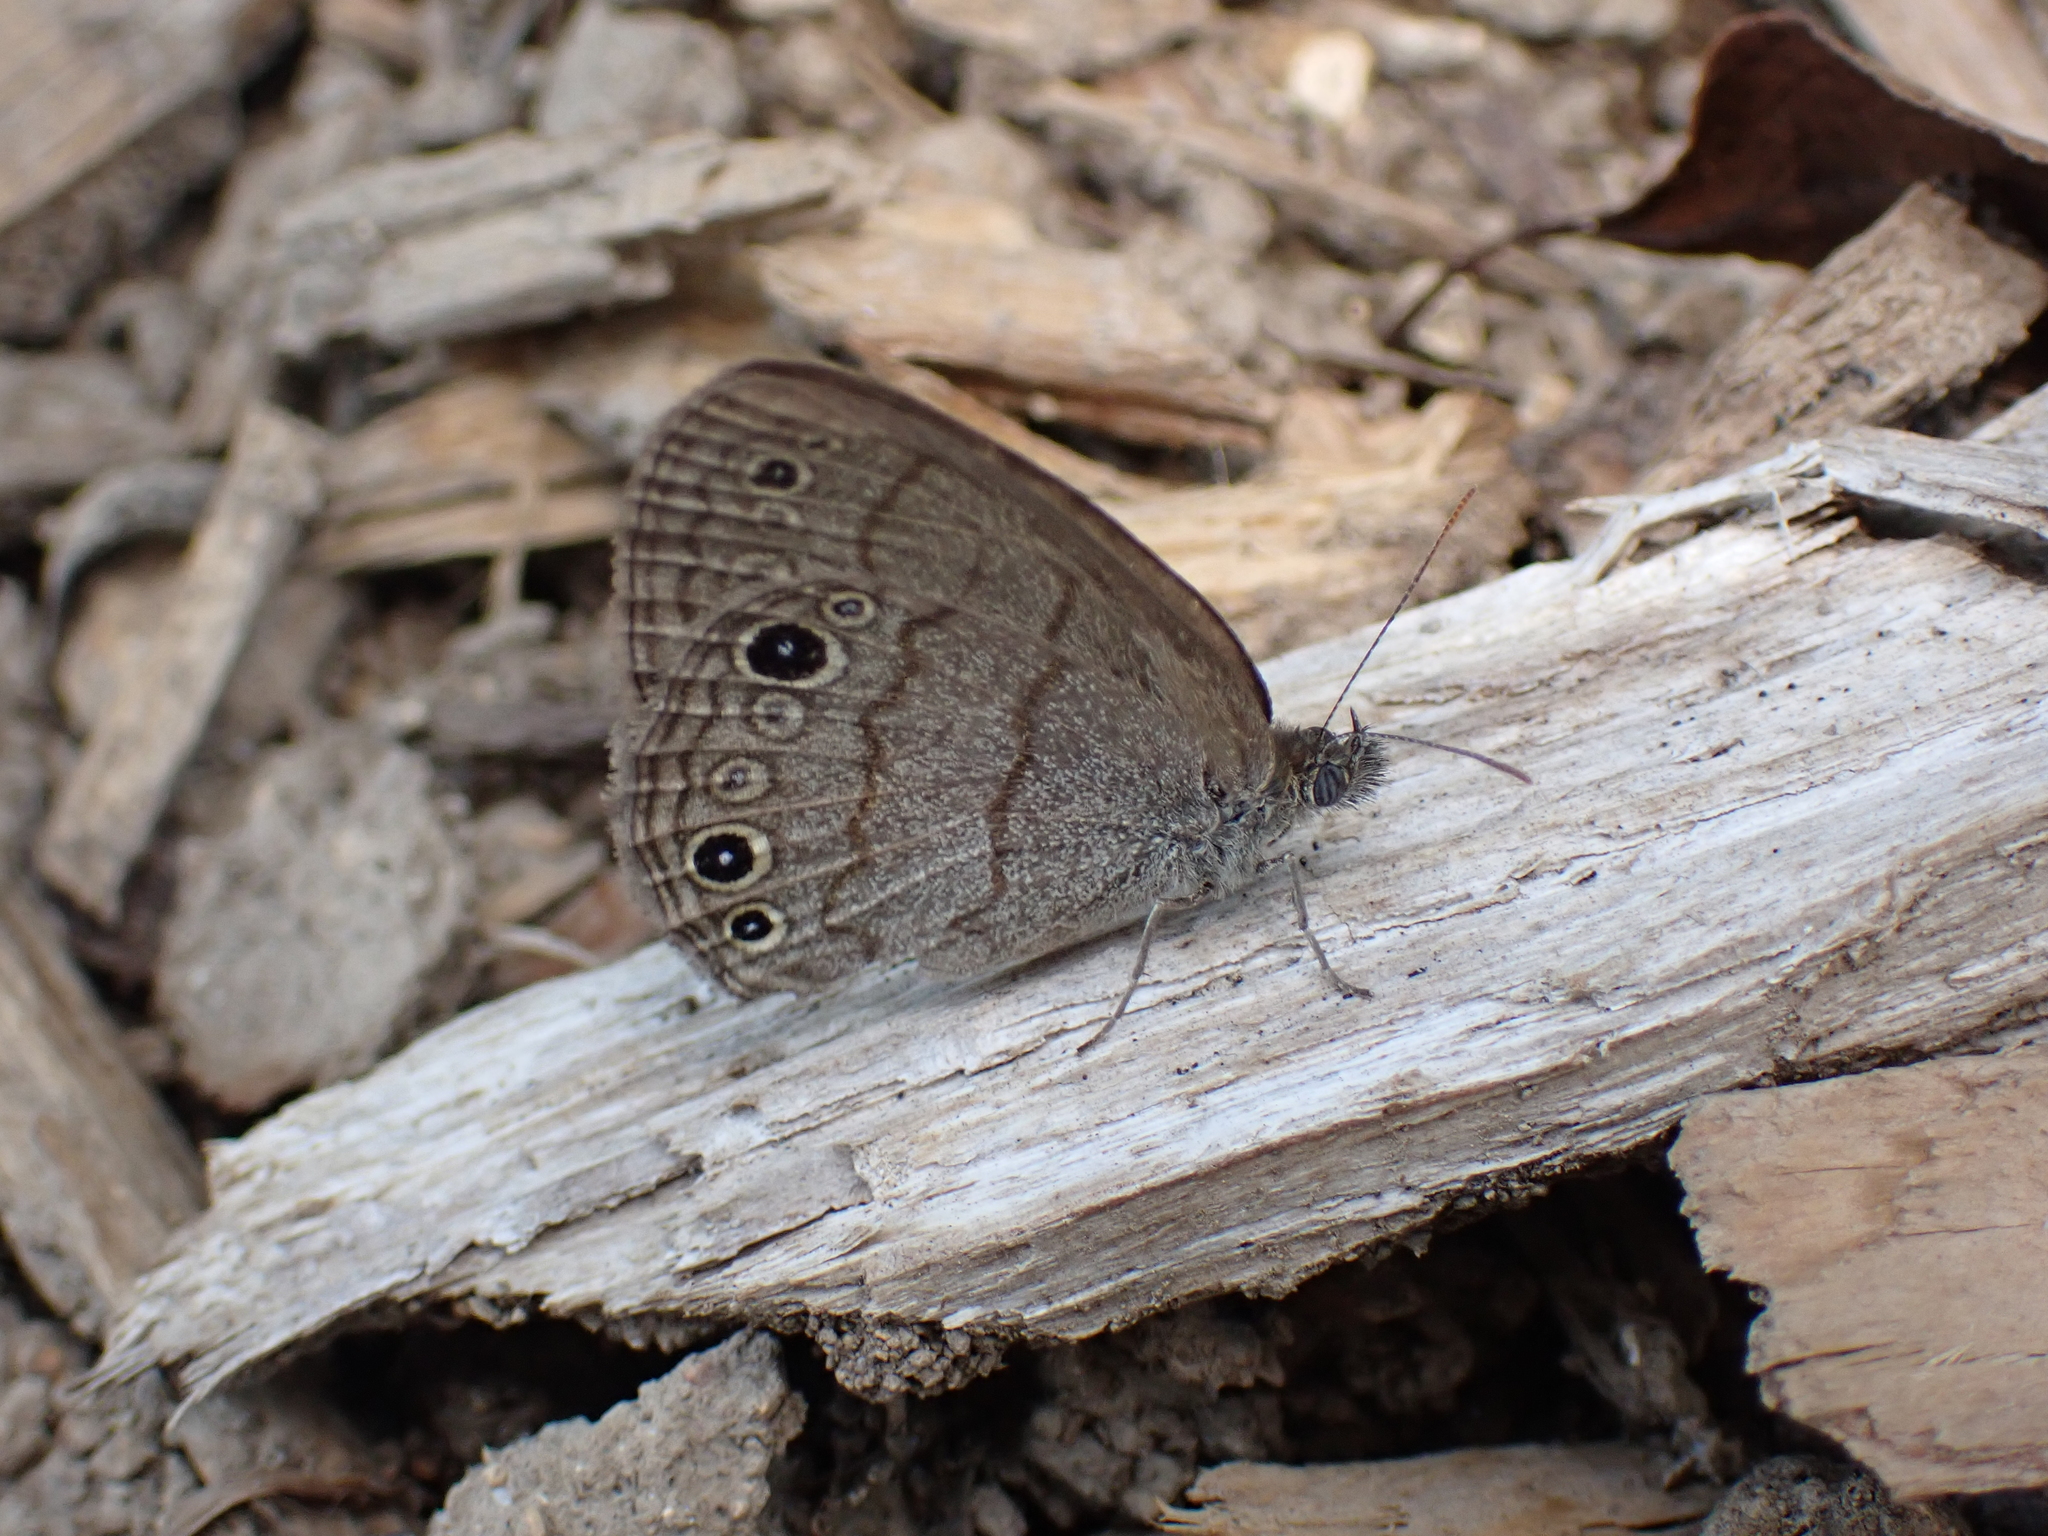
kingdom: Animalia
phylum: Arthropoda
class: Insecta
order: Lepidoptera
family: Nymphalidae
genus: Hermeuptychia
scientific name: Hermeuptychia hermes
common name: Hermes satyr
